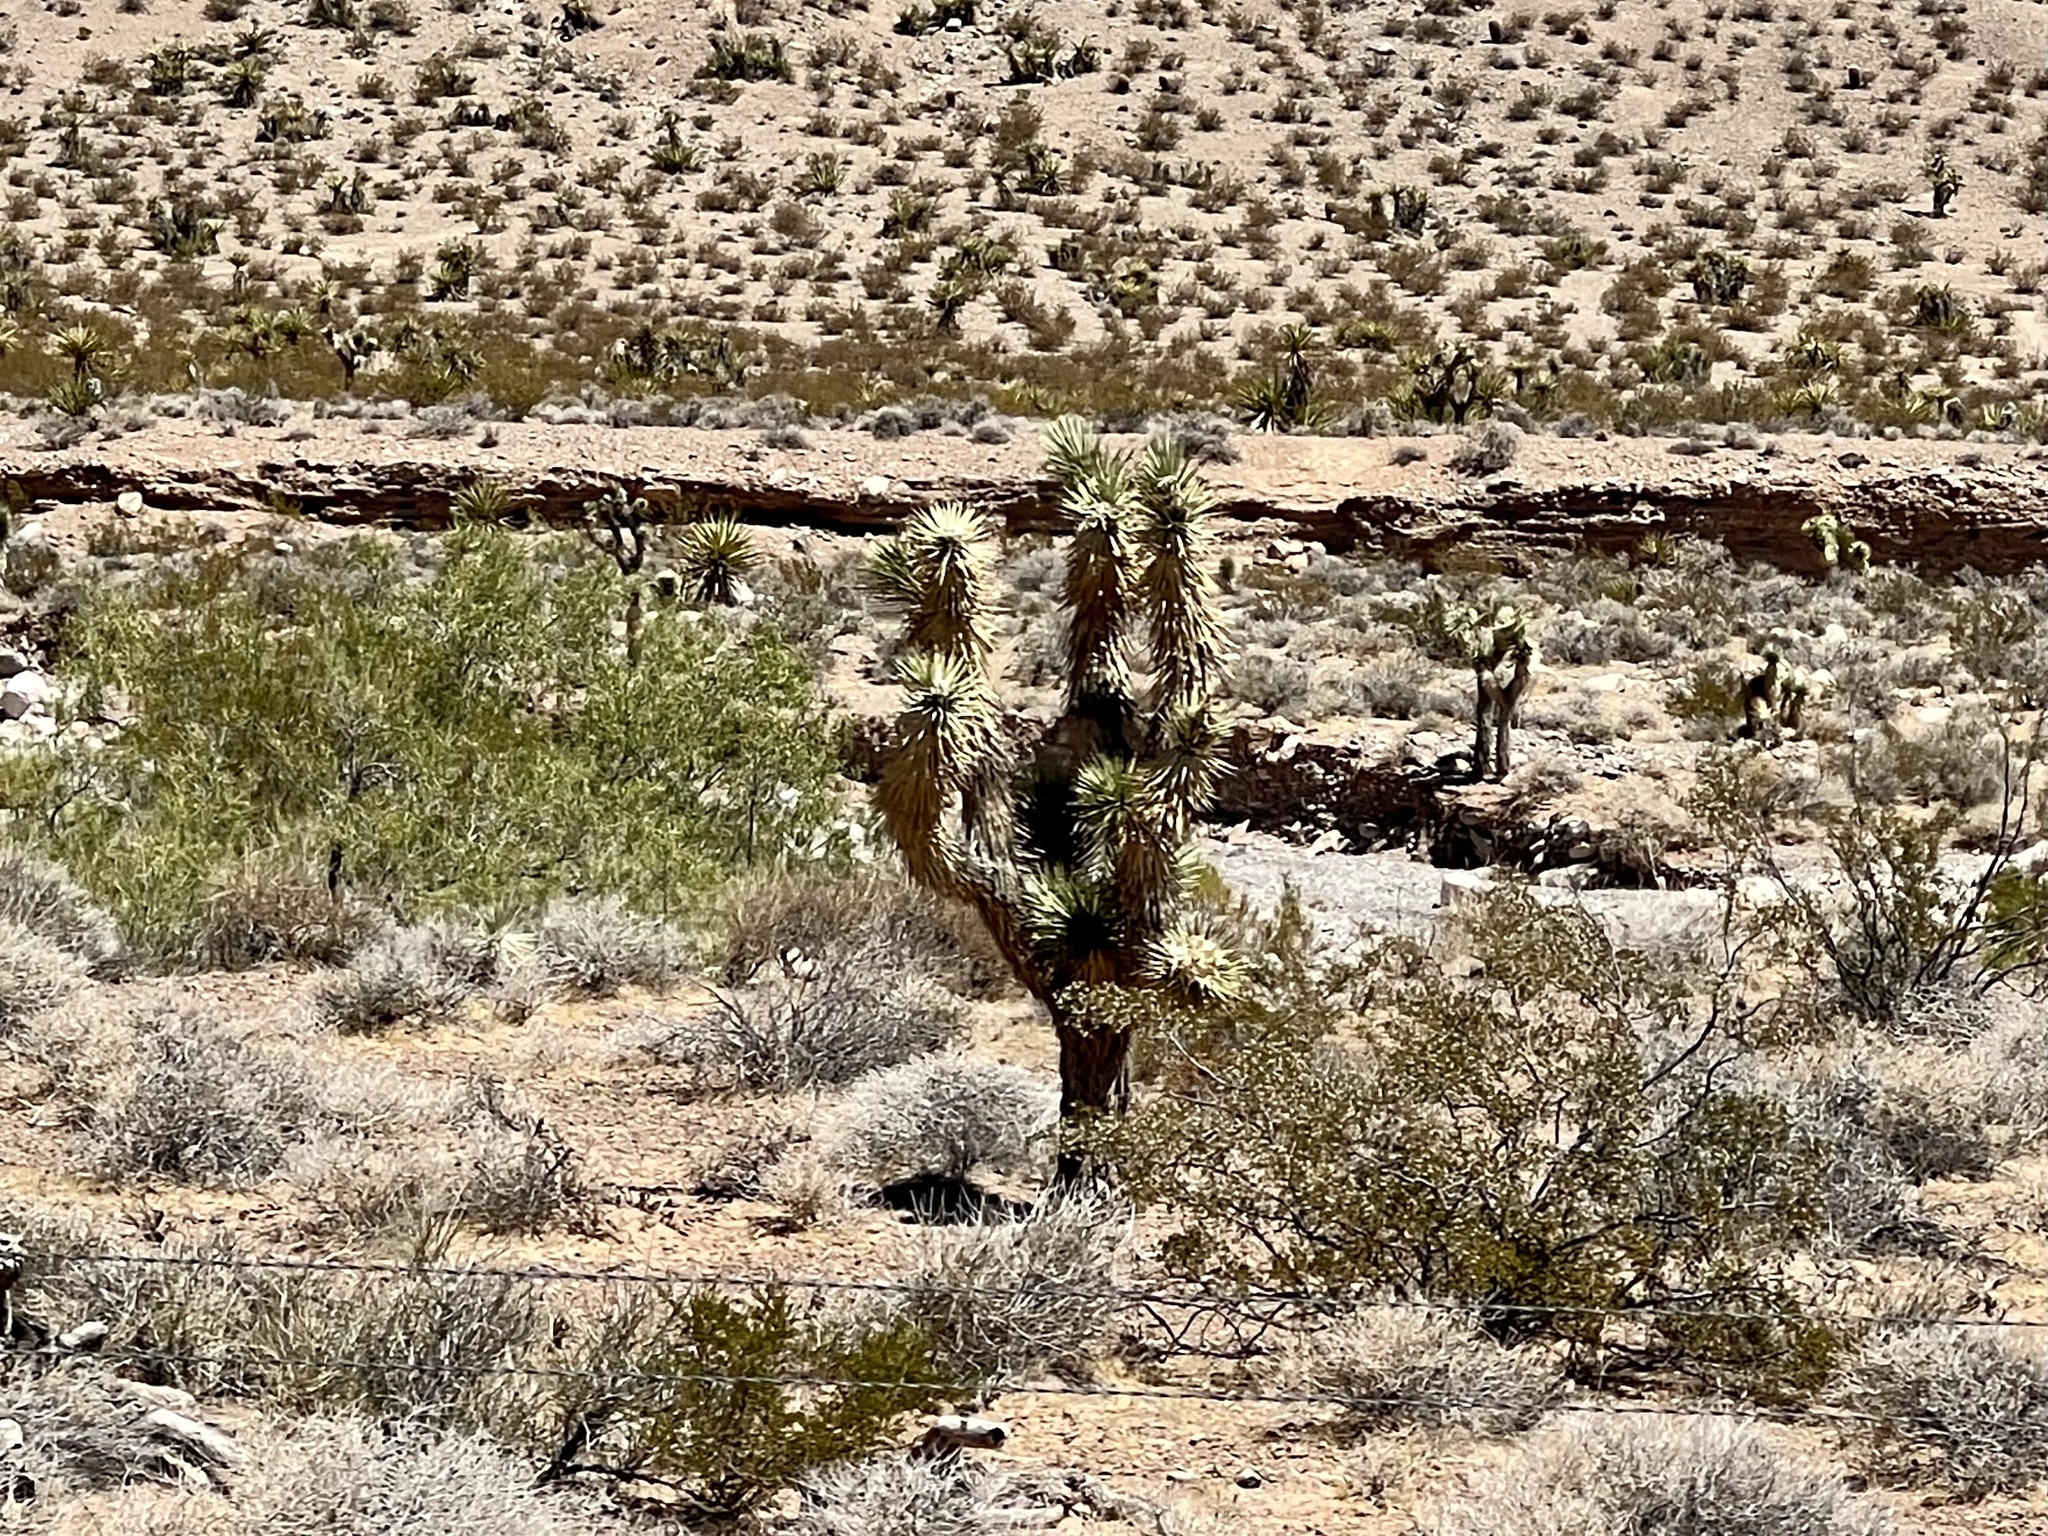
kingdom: Plantae
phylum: Tracheophyta
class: Liliopsida
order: Asparagales
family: Asparagaceae
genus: Yucca
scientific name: Yucca brevifolia
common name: Joshua tree
